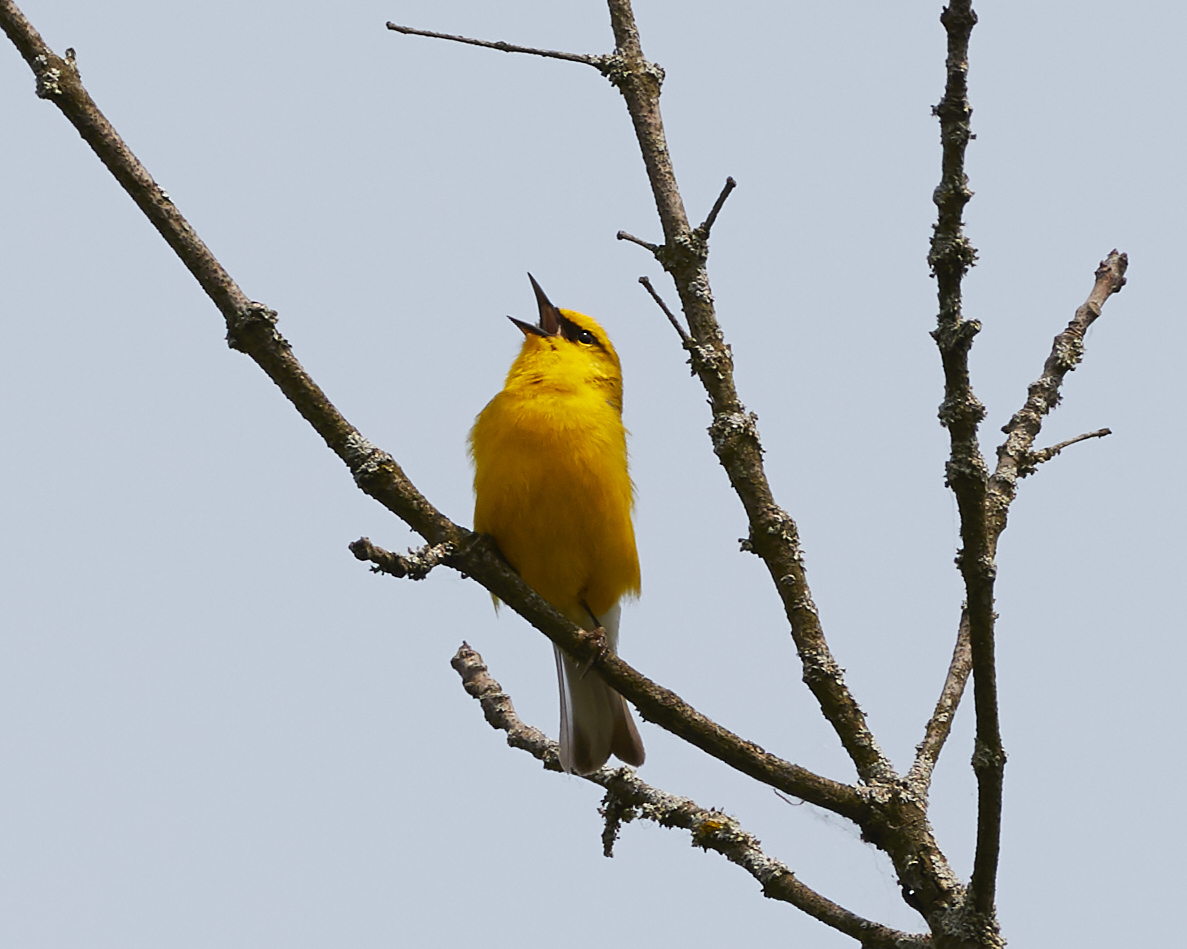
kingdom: Animalia
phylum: Chordata
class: Aves
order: Passeriformes
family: Parulidae
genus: Vermivora
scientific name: Vermivora cyanoptera
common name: Blue-winged warbler
